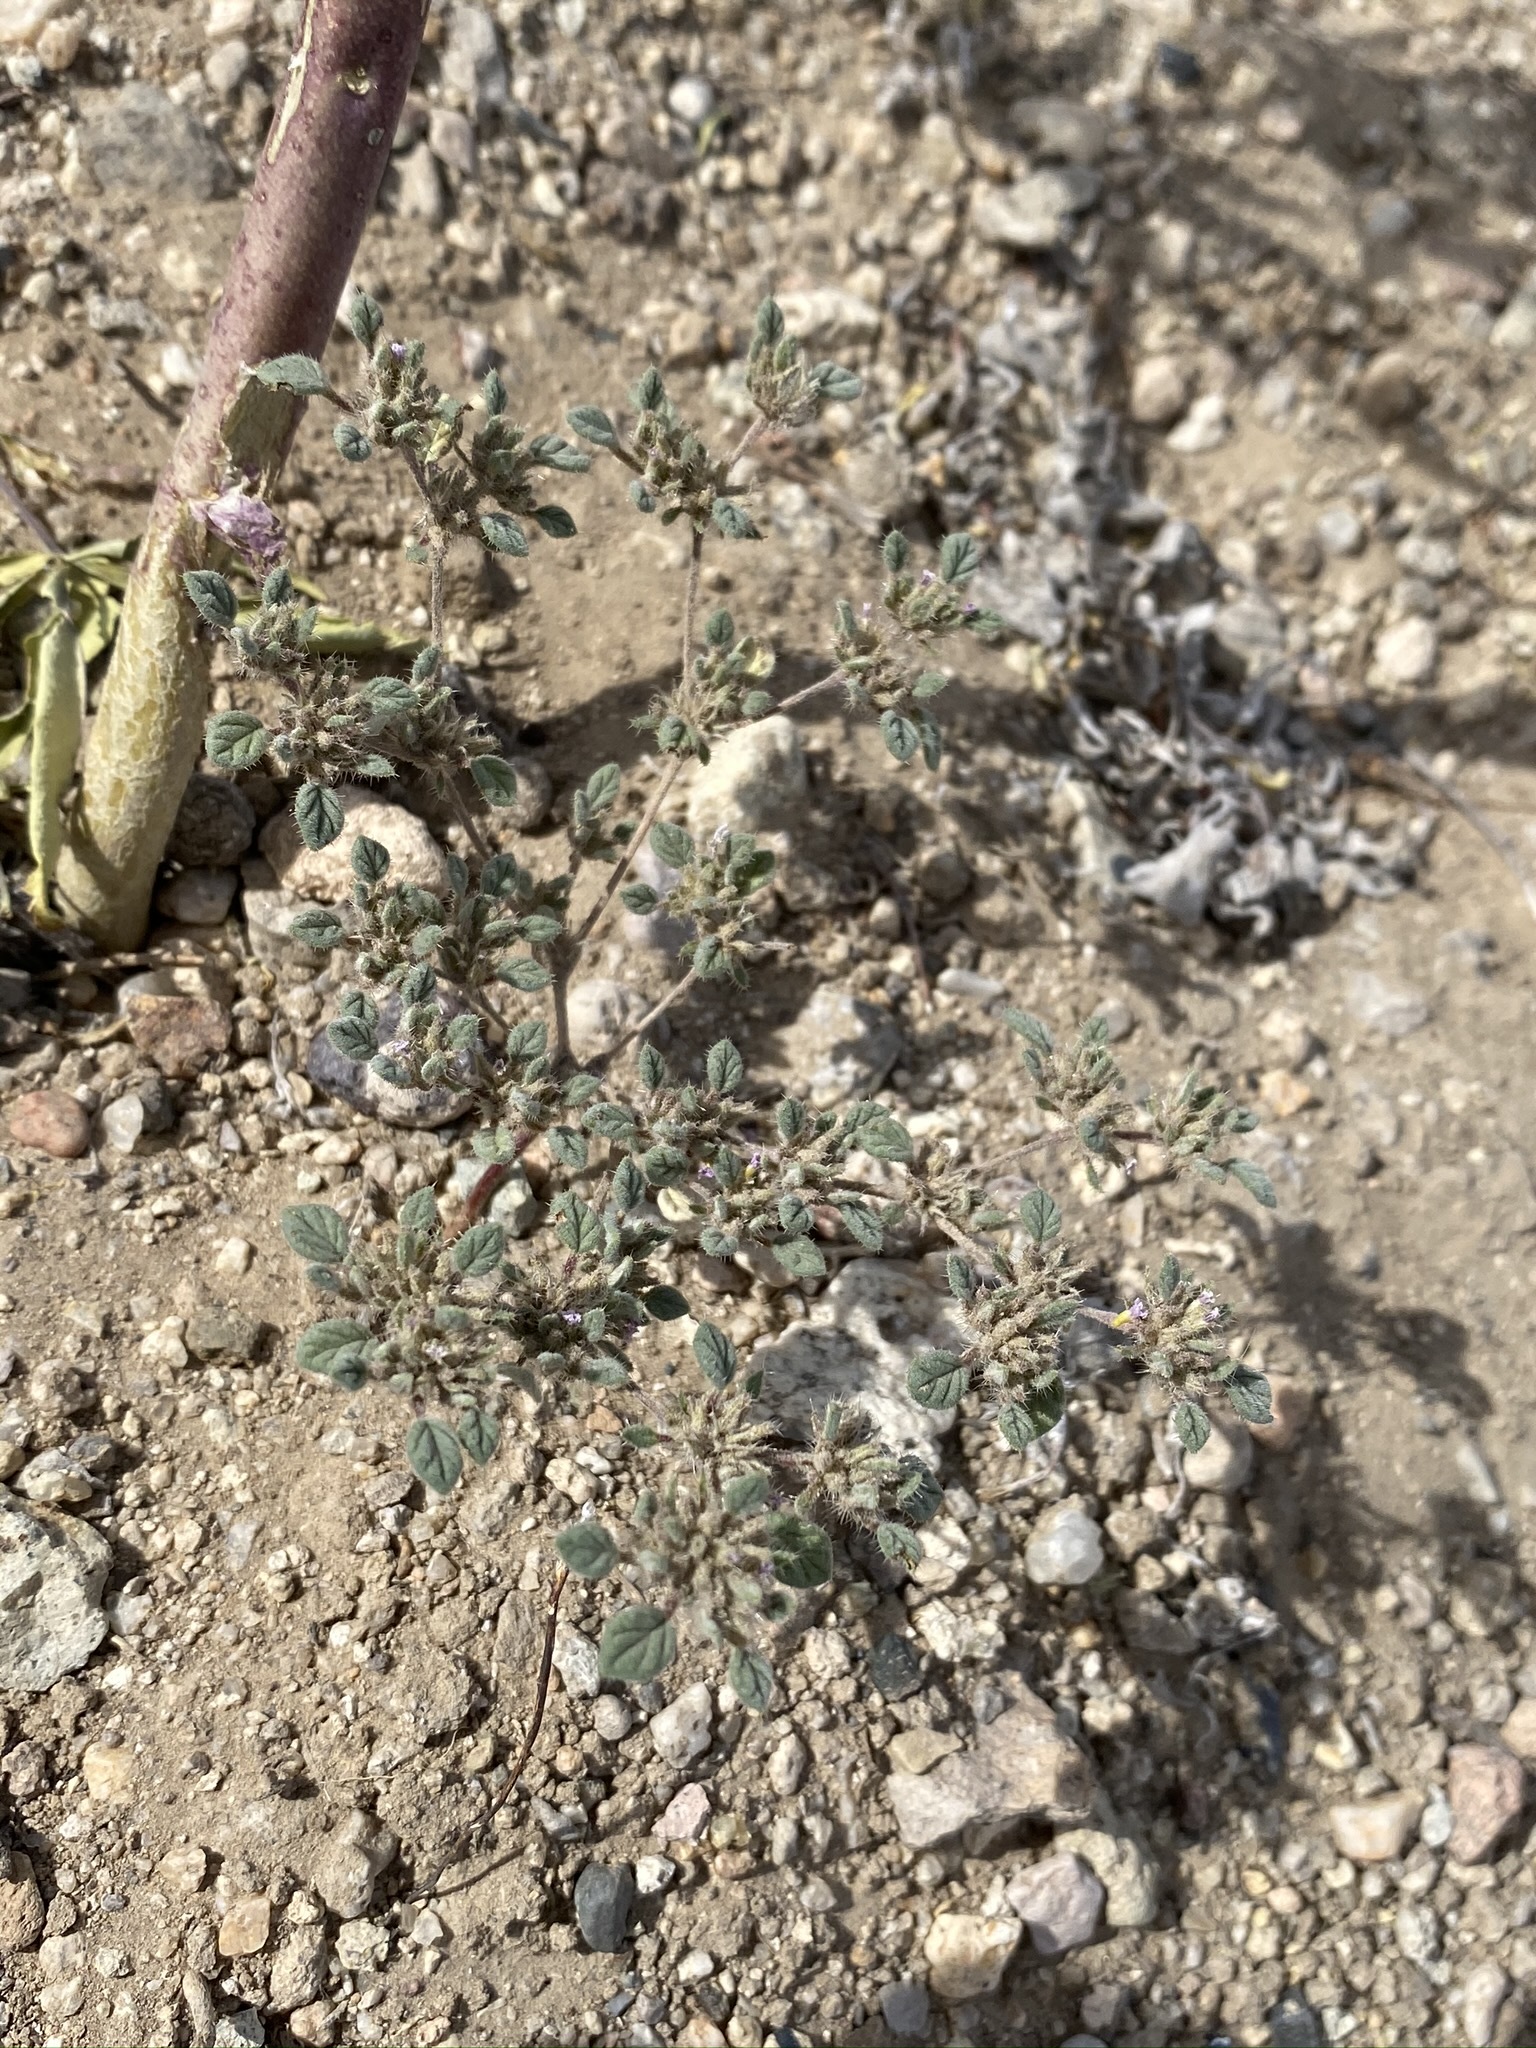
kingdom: Plantae
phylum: Tracheophyta
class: Magnoliopsida
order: Boraginales
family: Ehretiaceae
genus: Tiquilia
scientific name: Tiquilia nuttallii
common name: Rosette tiquilia
